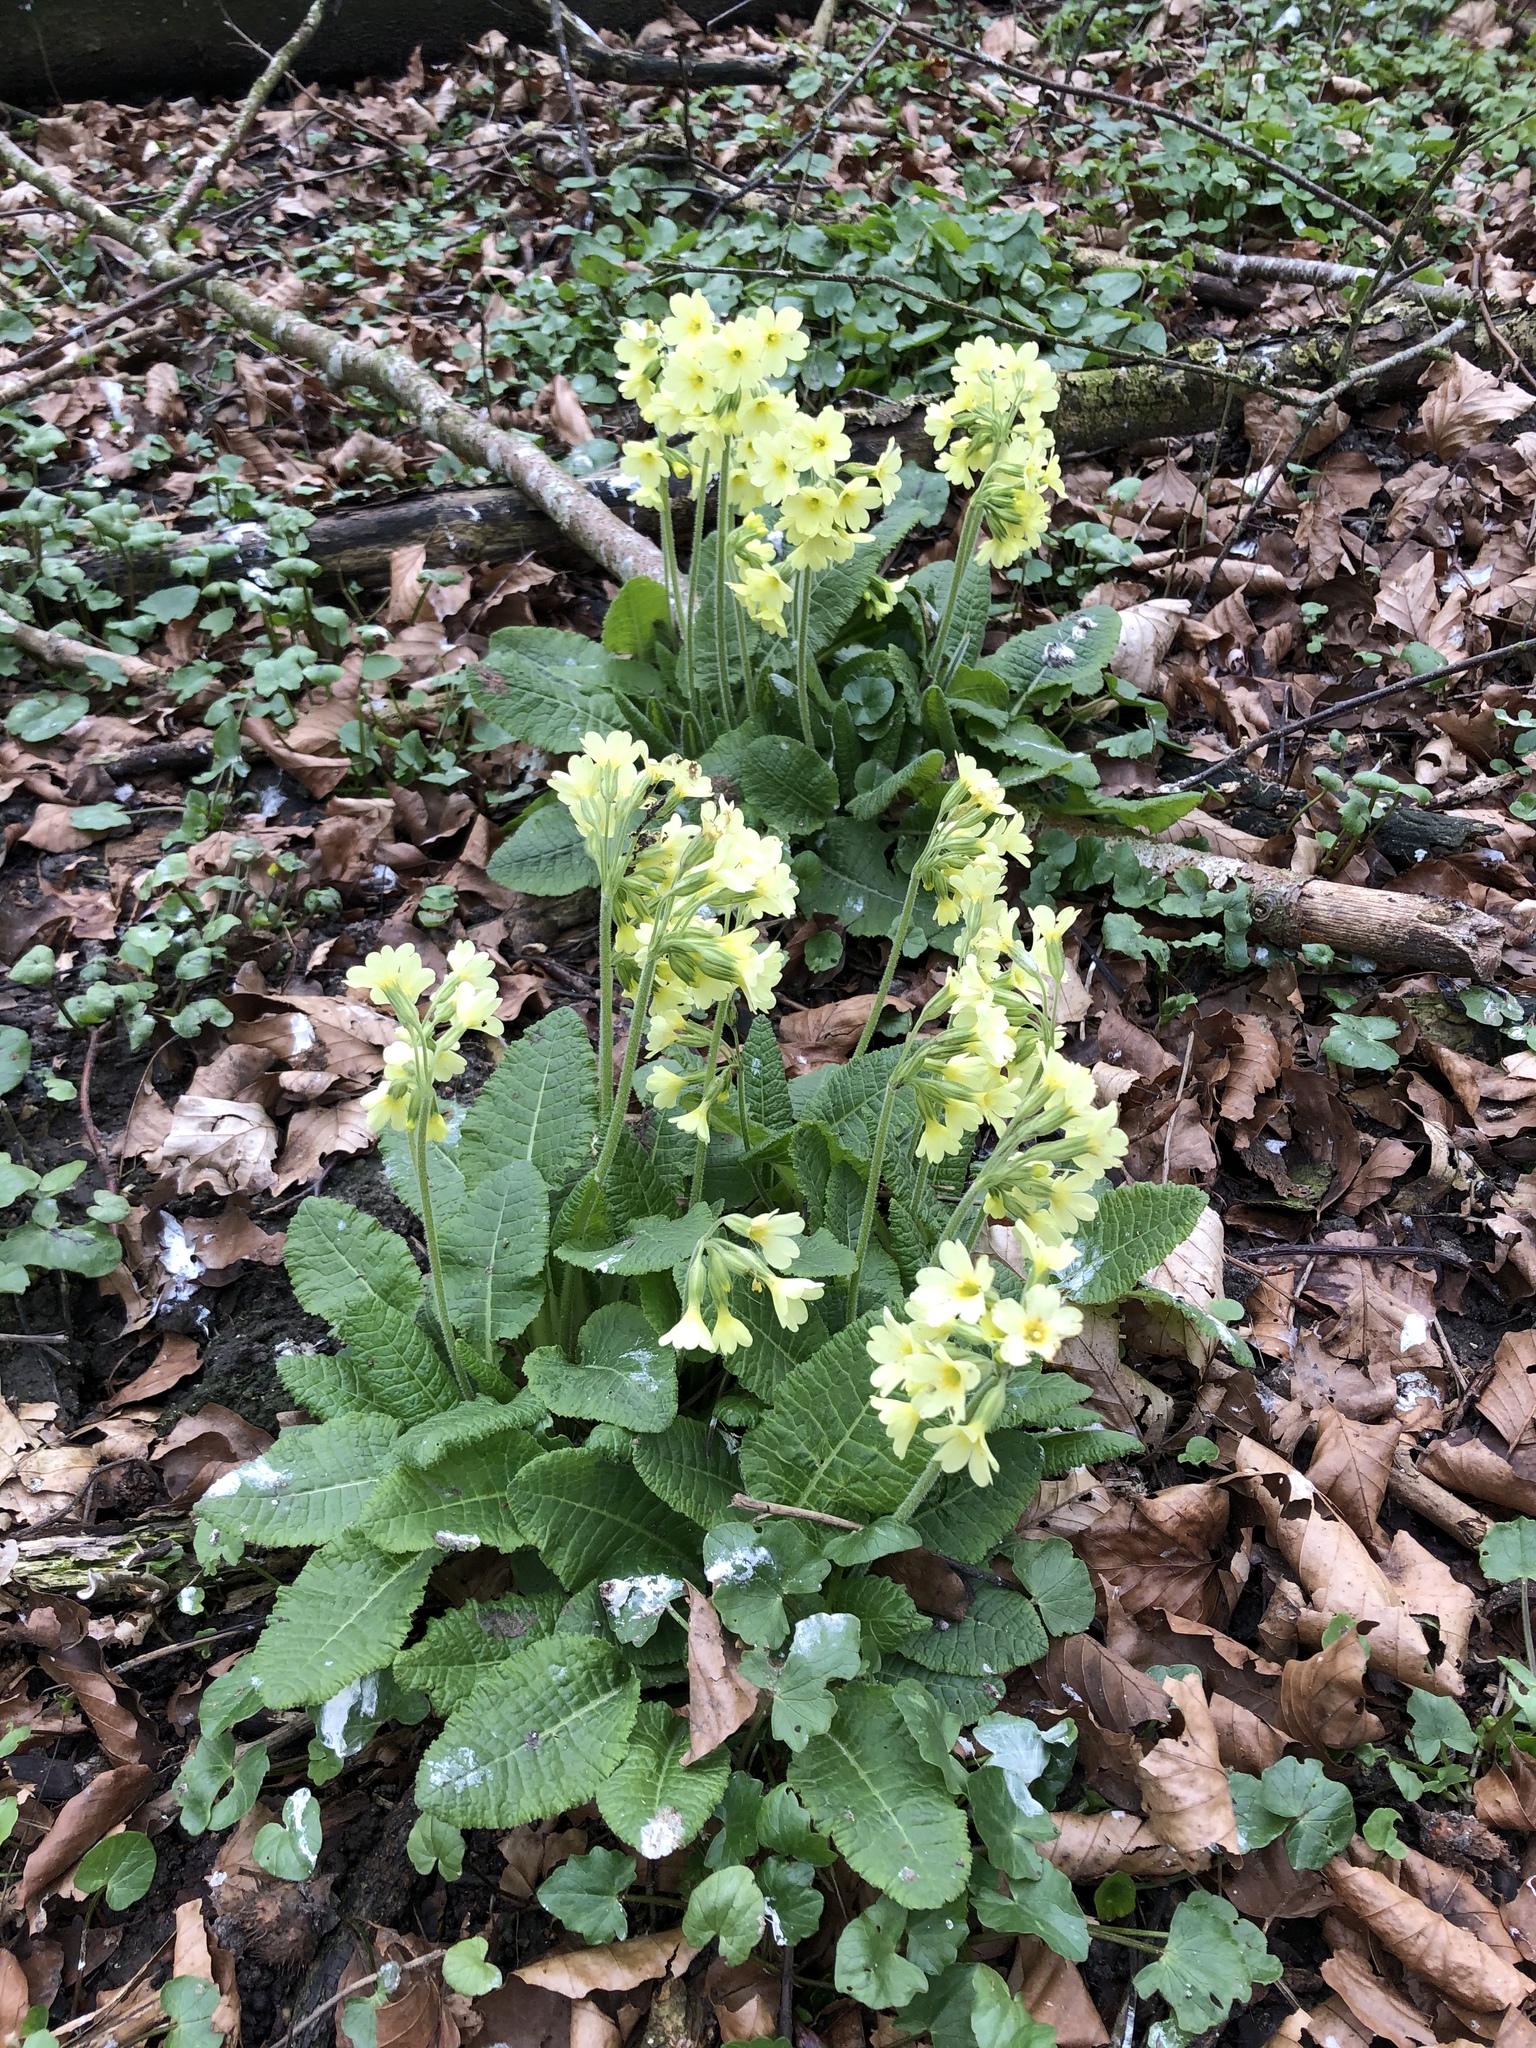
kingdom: Plantae
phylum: Tracheophyta
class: Magnoliopsida
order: Ericales
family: Primulaceae
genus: Primula
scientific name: Primula elatior
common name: Oxlip
